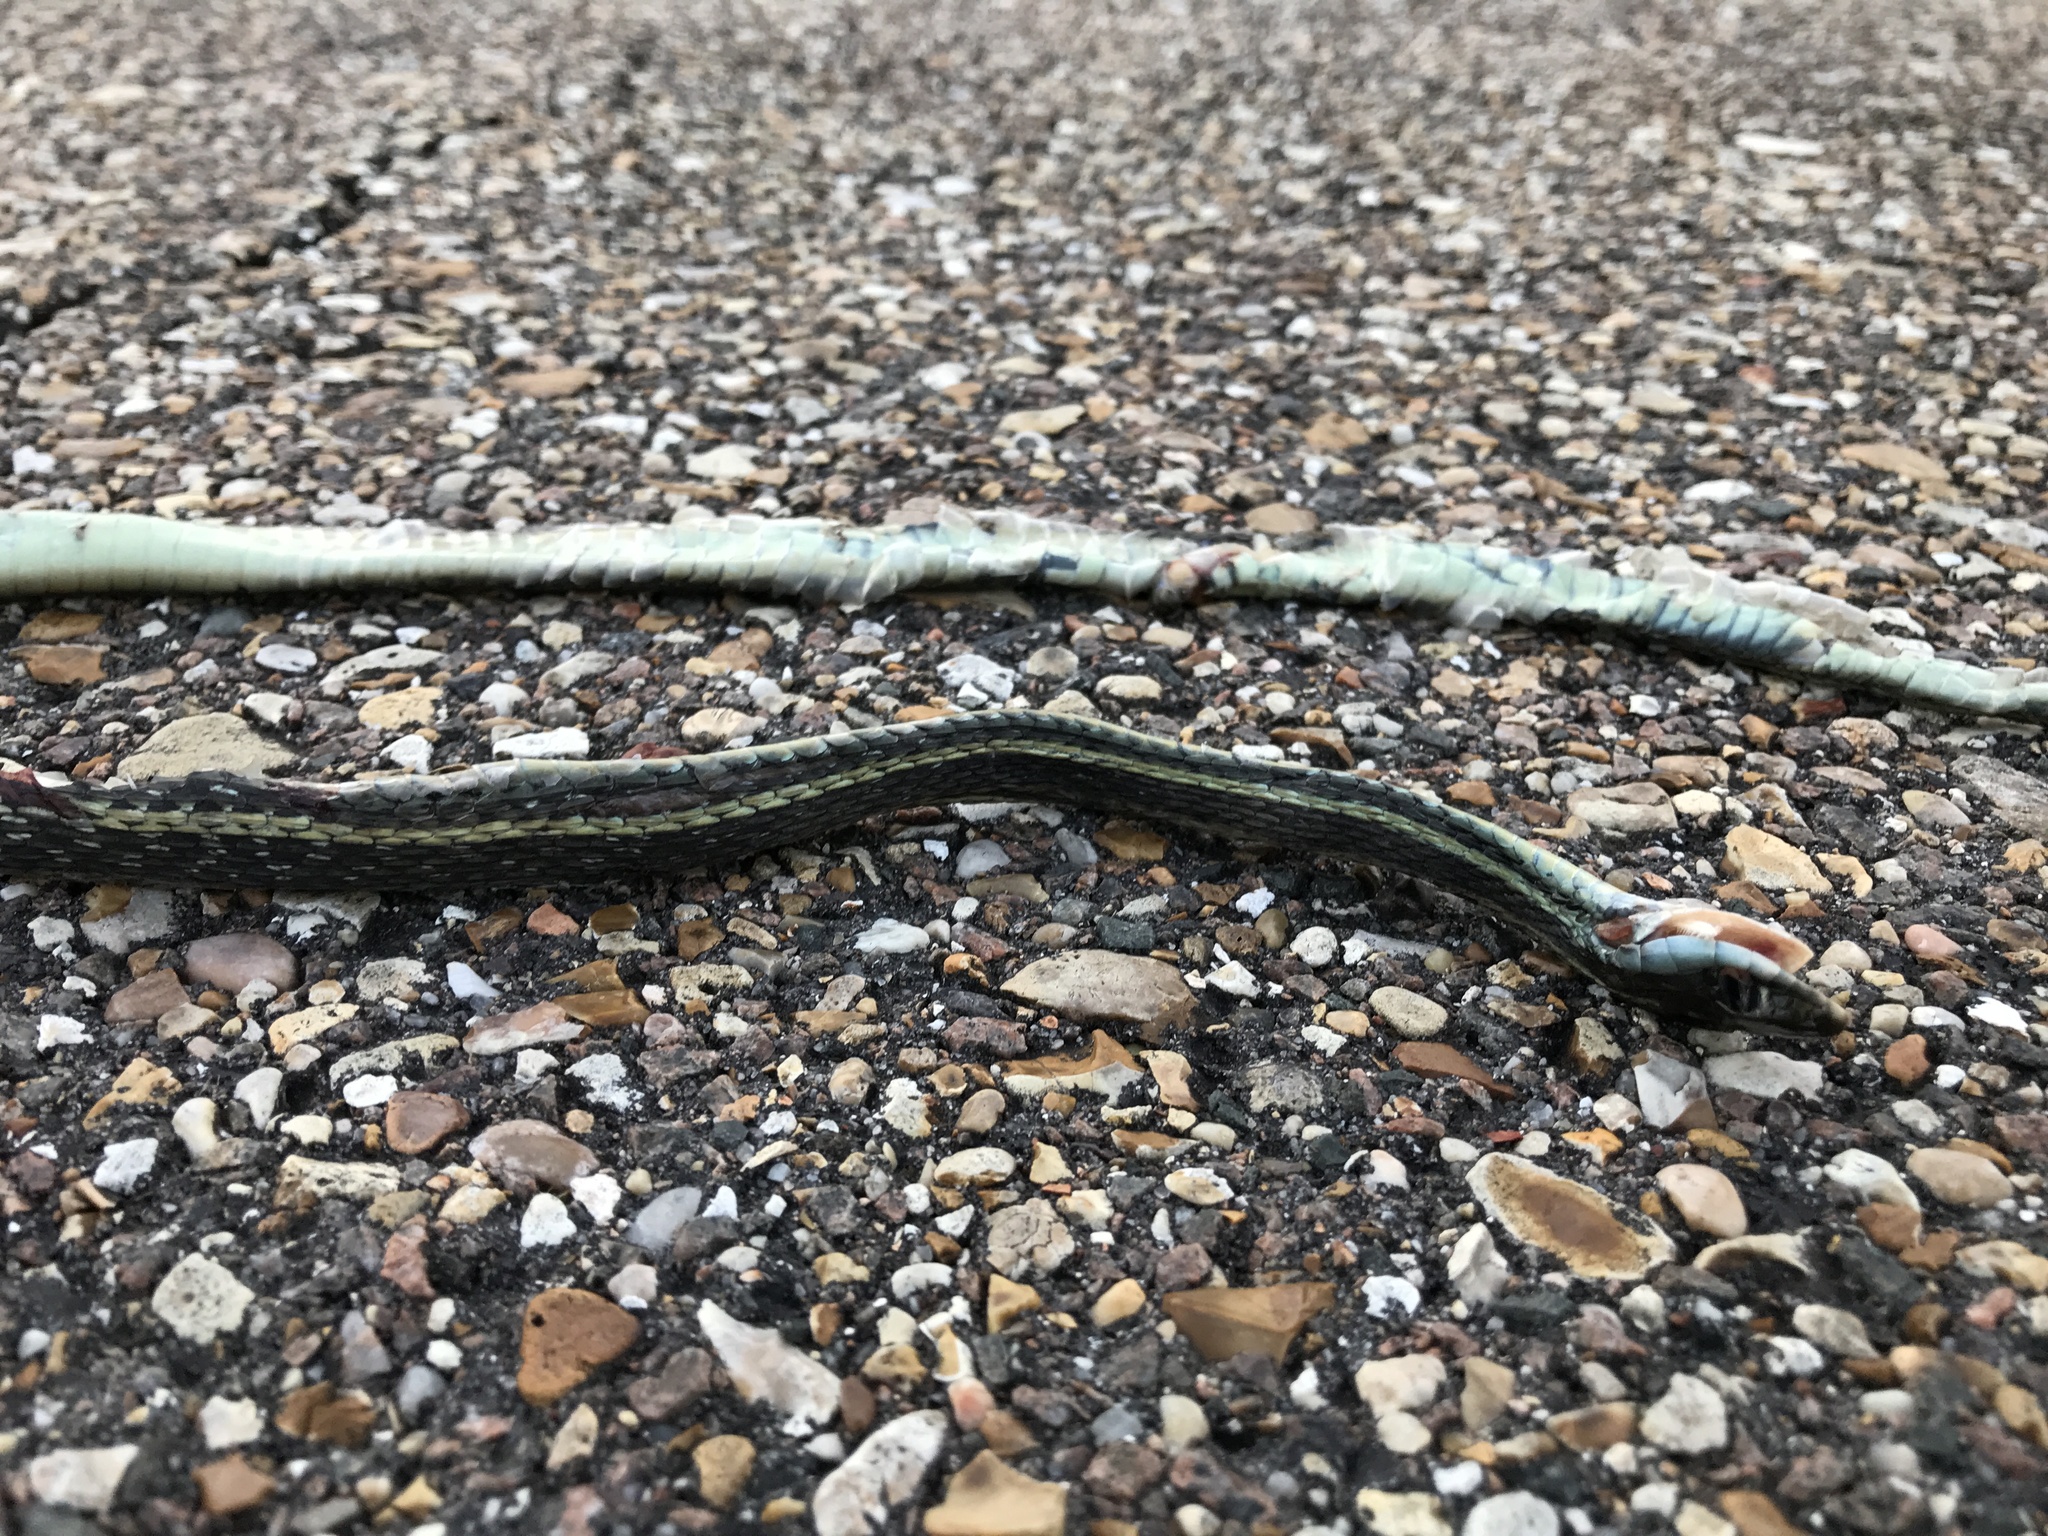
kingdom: Animalia
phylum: Chordata
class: Squamata
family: Colubridae
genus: Thamnophis
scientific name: Thamnophis proximus
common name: Western ribbon snake
